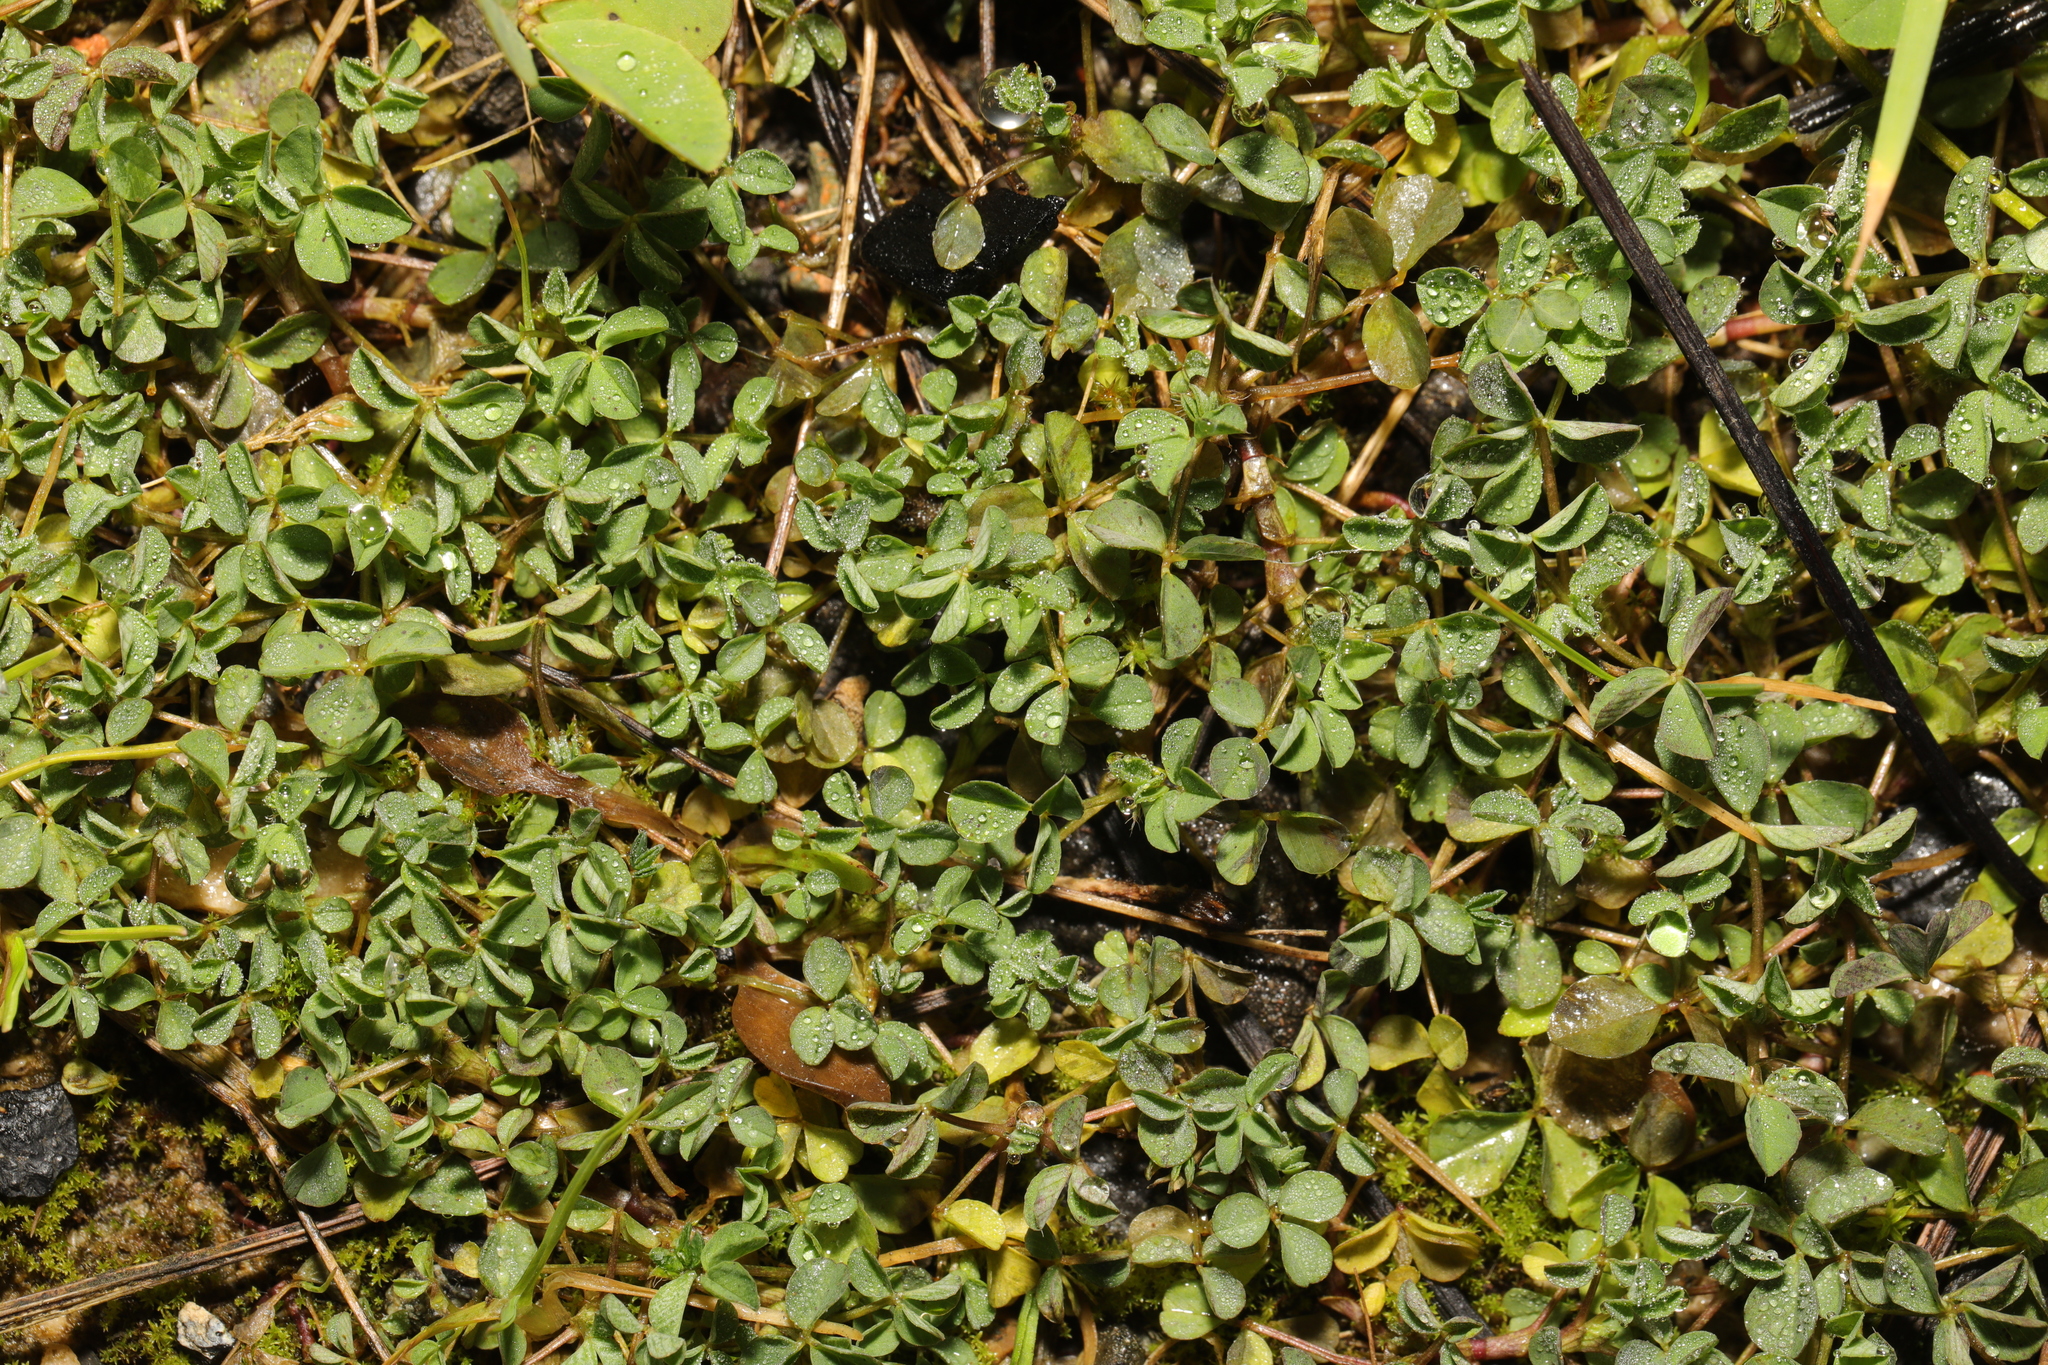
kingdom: Plantae
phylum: Tracheophyta
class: Magnoliopsida
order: Fabales
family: Fabaceae
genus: Trifolium
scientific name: Trifolium dubium
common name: Suckling clover
